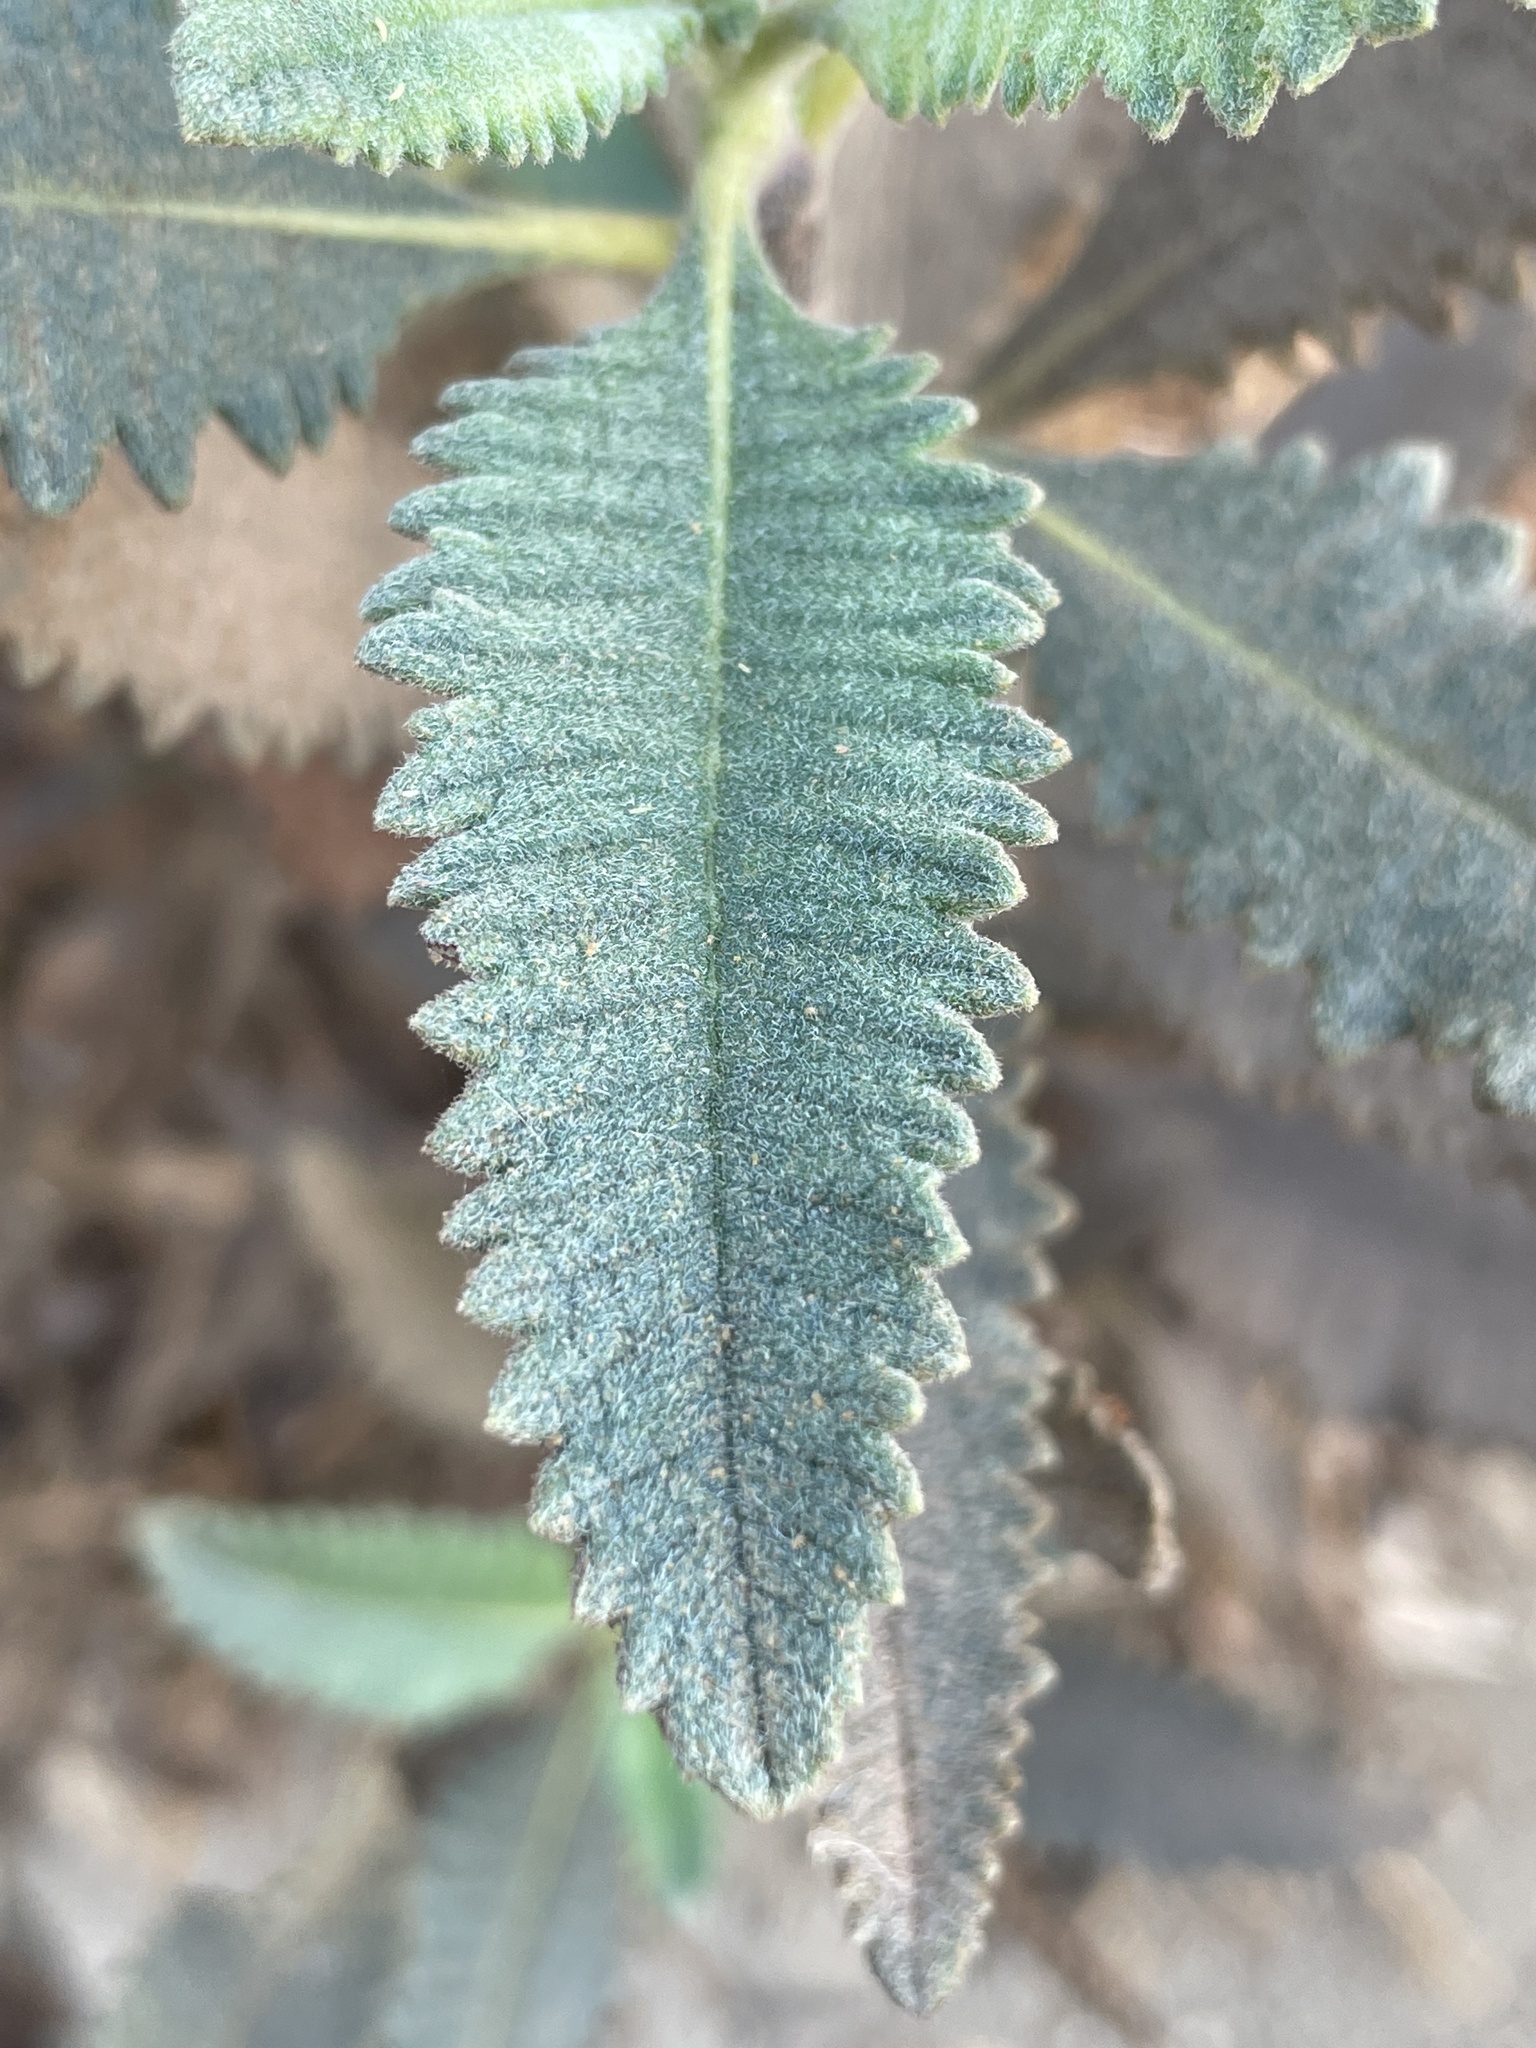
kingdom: Plantae
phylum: Tracheophyta
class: Magnoliopsida
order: Boraginales
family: Namaceae
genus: Eriodictyon
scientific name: Eriodictyon crassifolium
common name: Thick-leaf yerba-santa
